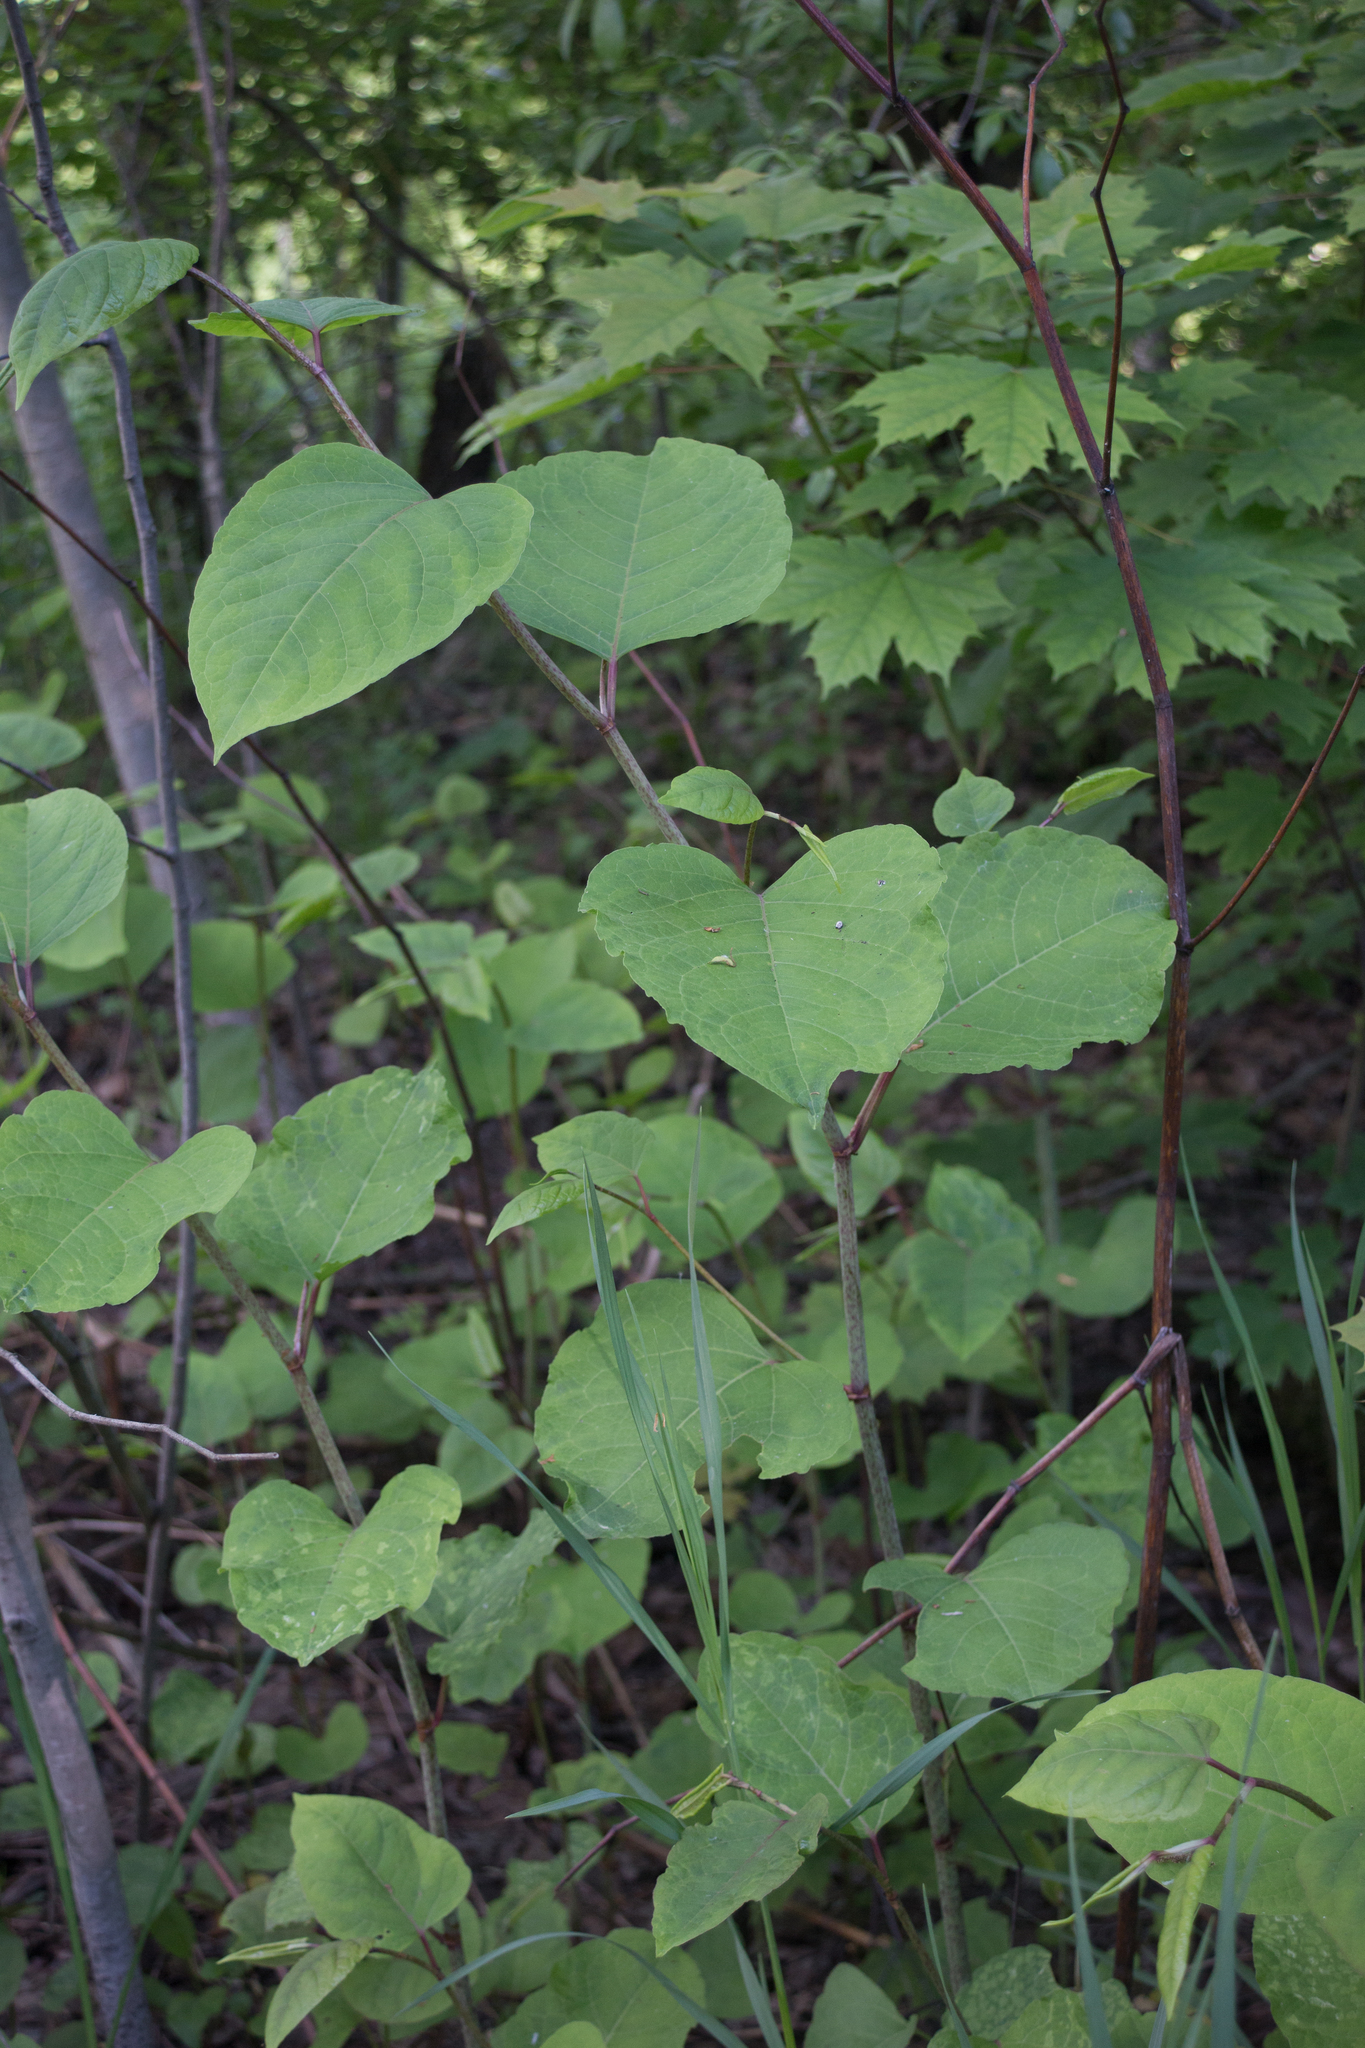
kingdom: Plantae
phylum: Tracheophyta
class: Magnoliopsida
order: Caryophyllales
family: Polygonaceae
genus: Reynoutria
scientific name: Reynoutria bohemica
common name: Bohemian knotweed
